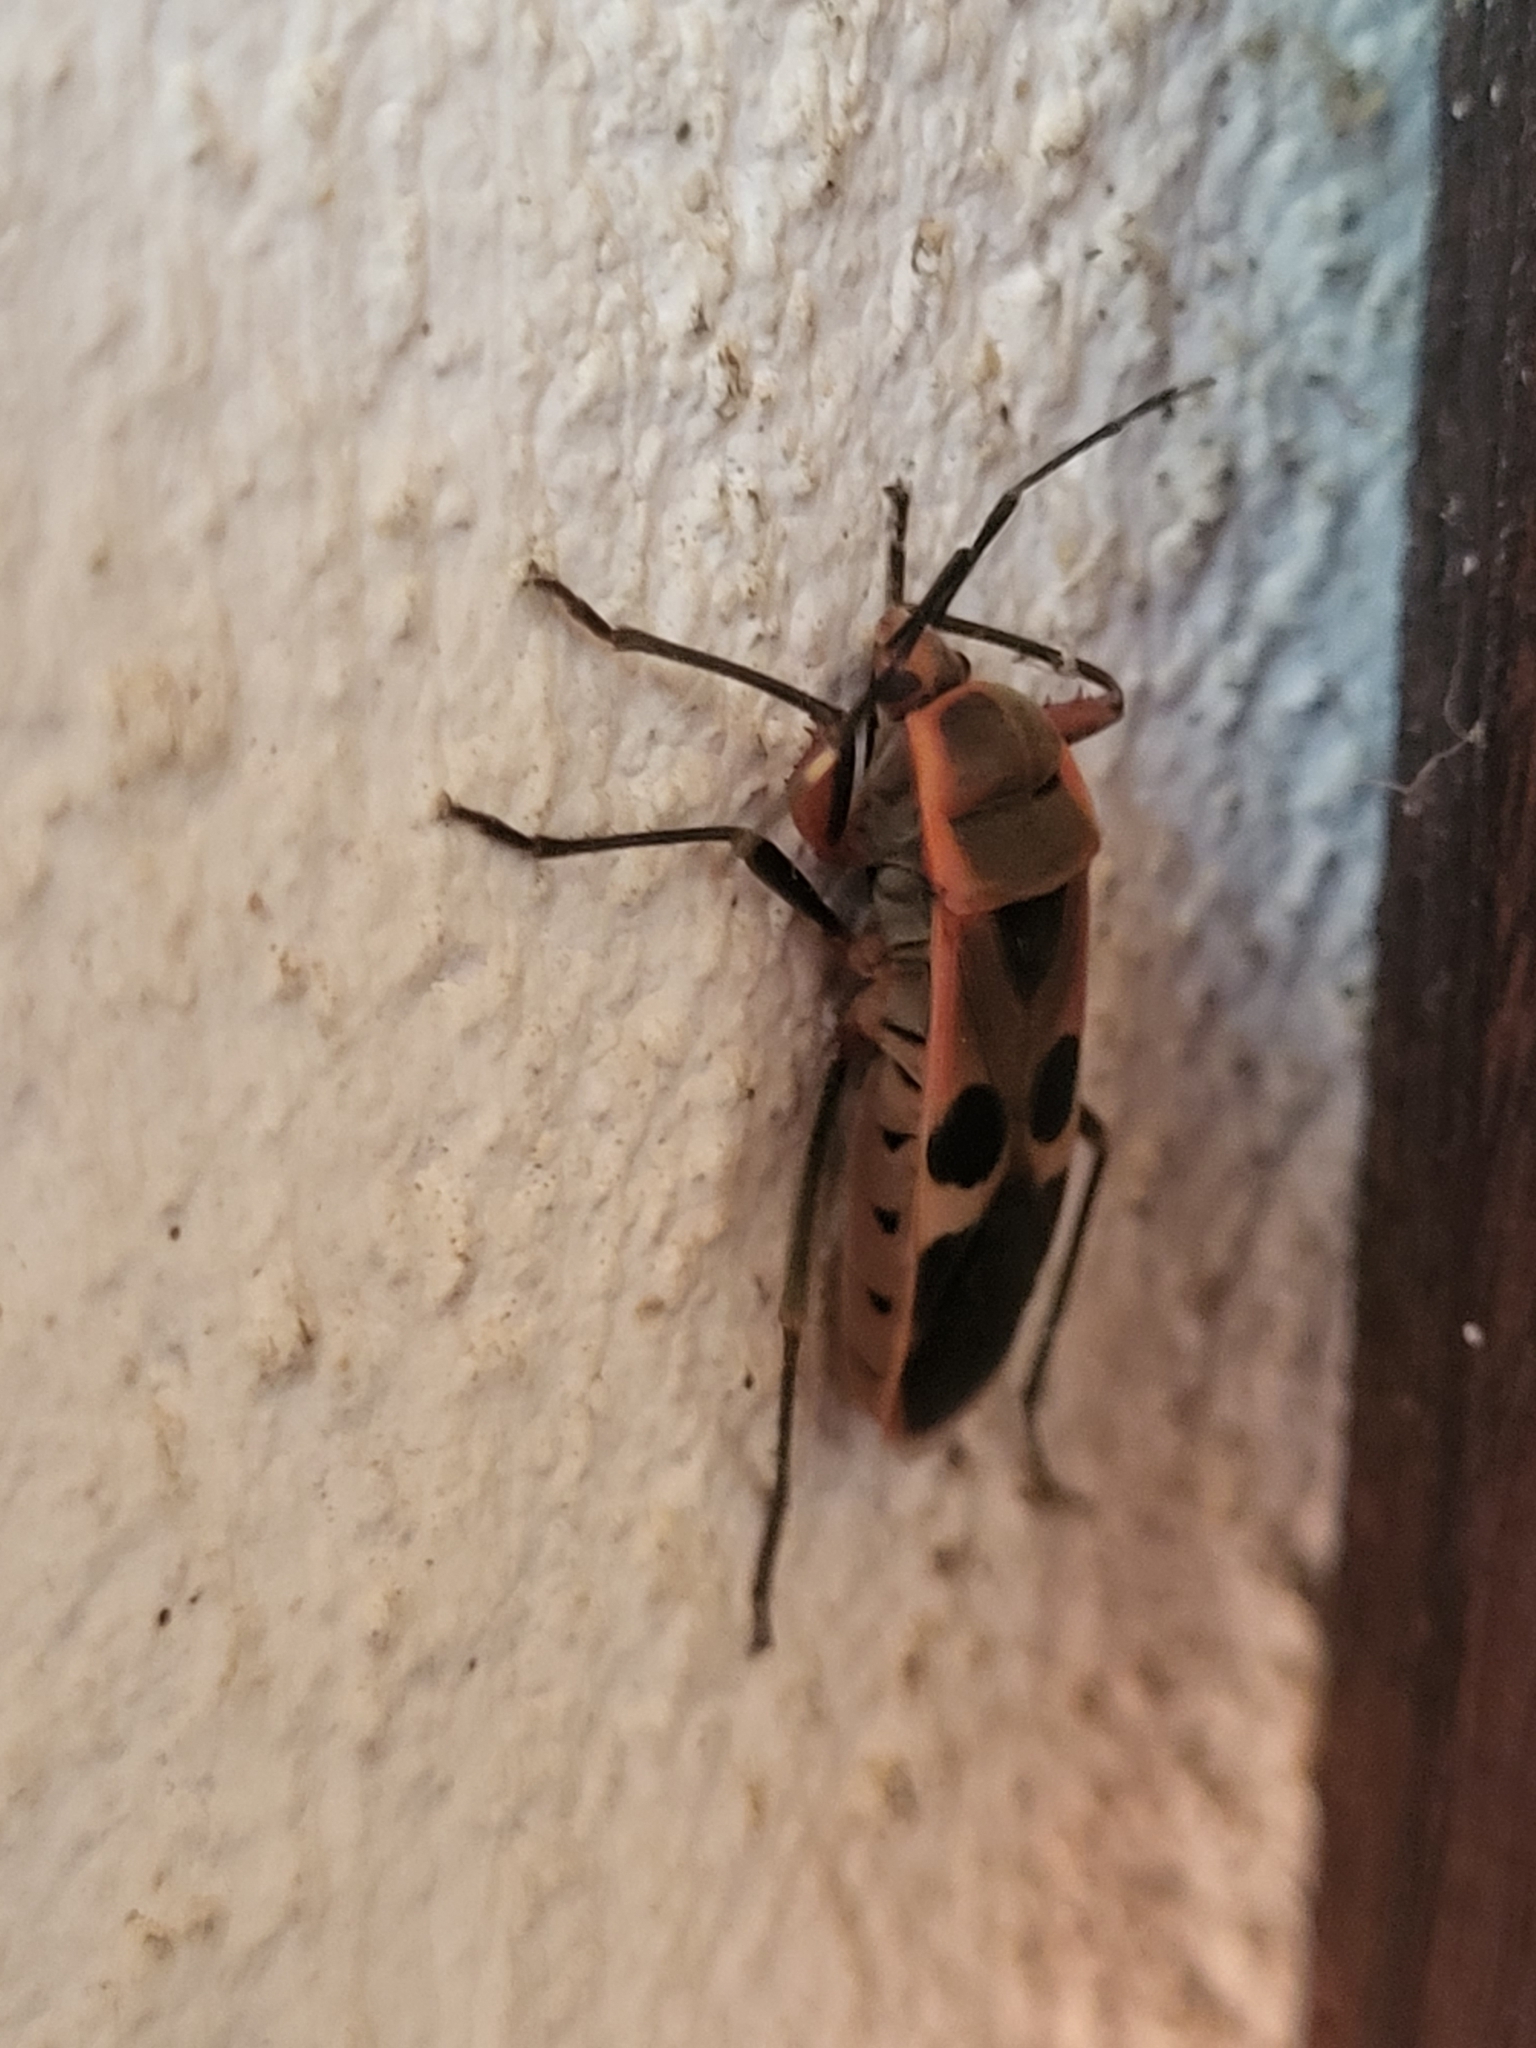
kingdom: Animalia
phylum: Arthropoda
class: Insecta
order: Hemiptera
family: Largidae
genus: Physopelta
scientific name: Physopelta gutta
